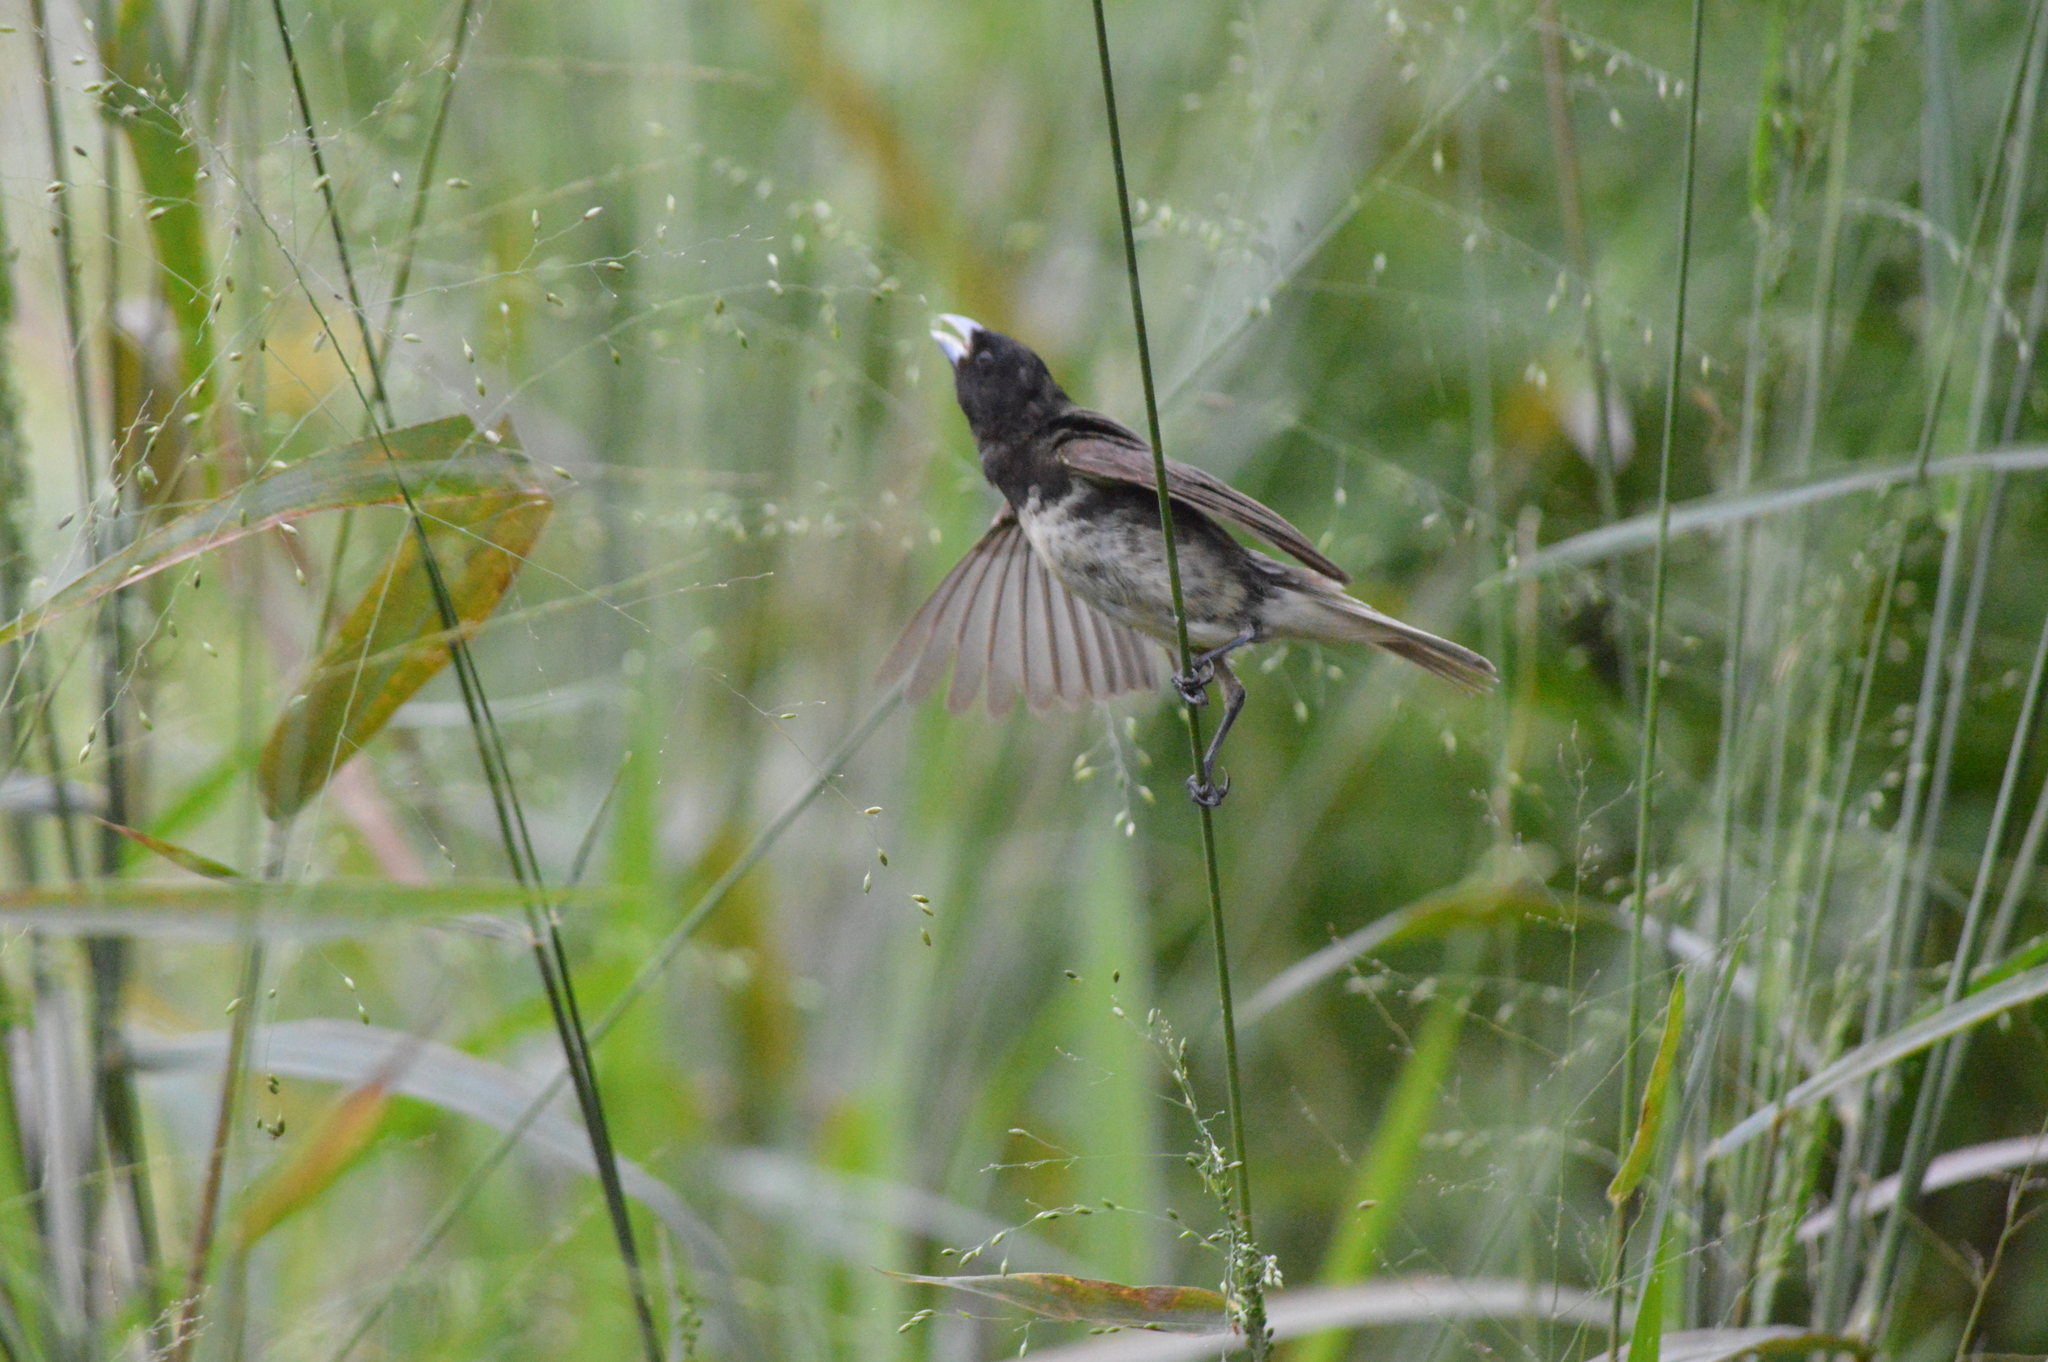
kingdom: Animalia
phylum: Chordata
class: Aves
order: Passeriformes
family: Thraupidae
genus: Sporophila
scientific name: Sporophila nigricollis
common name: Yellow-bellied seedeater
